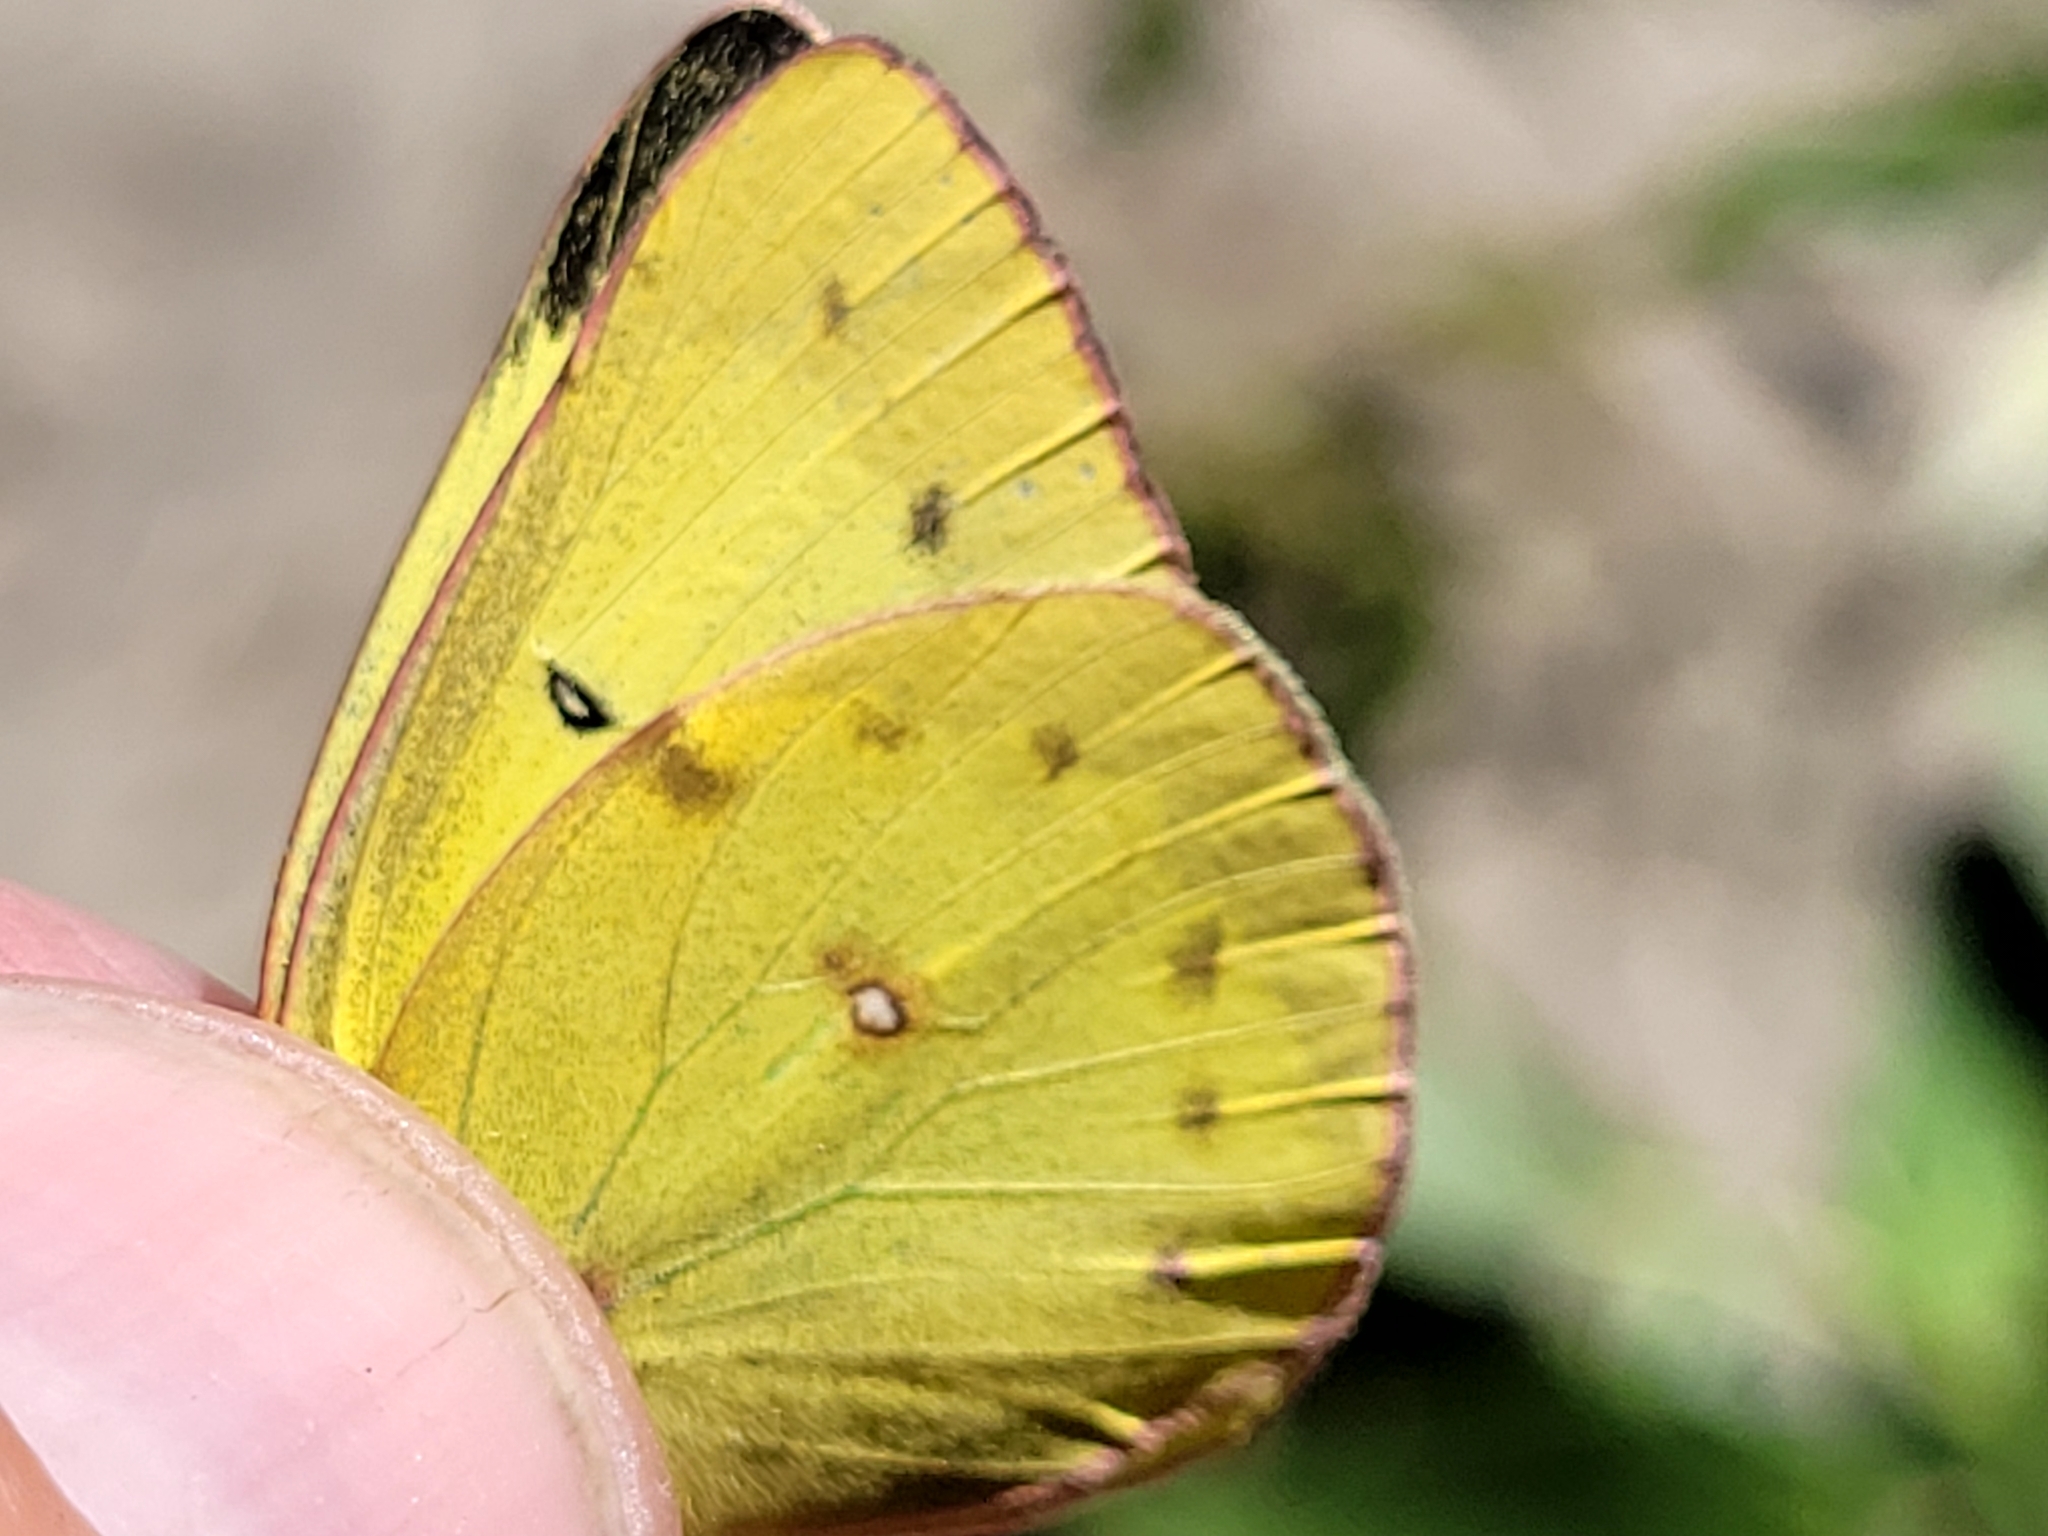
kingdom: Animalia
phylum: Arthropoda
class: Insecta
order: Lepidoptera
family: Pieridae
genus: Colias
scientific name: Colias philodice
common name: Clouded sulphur
